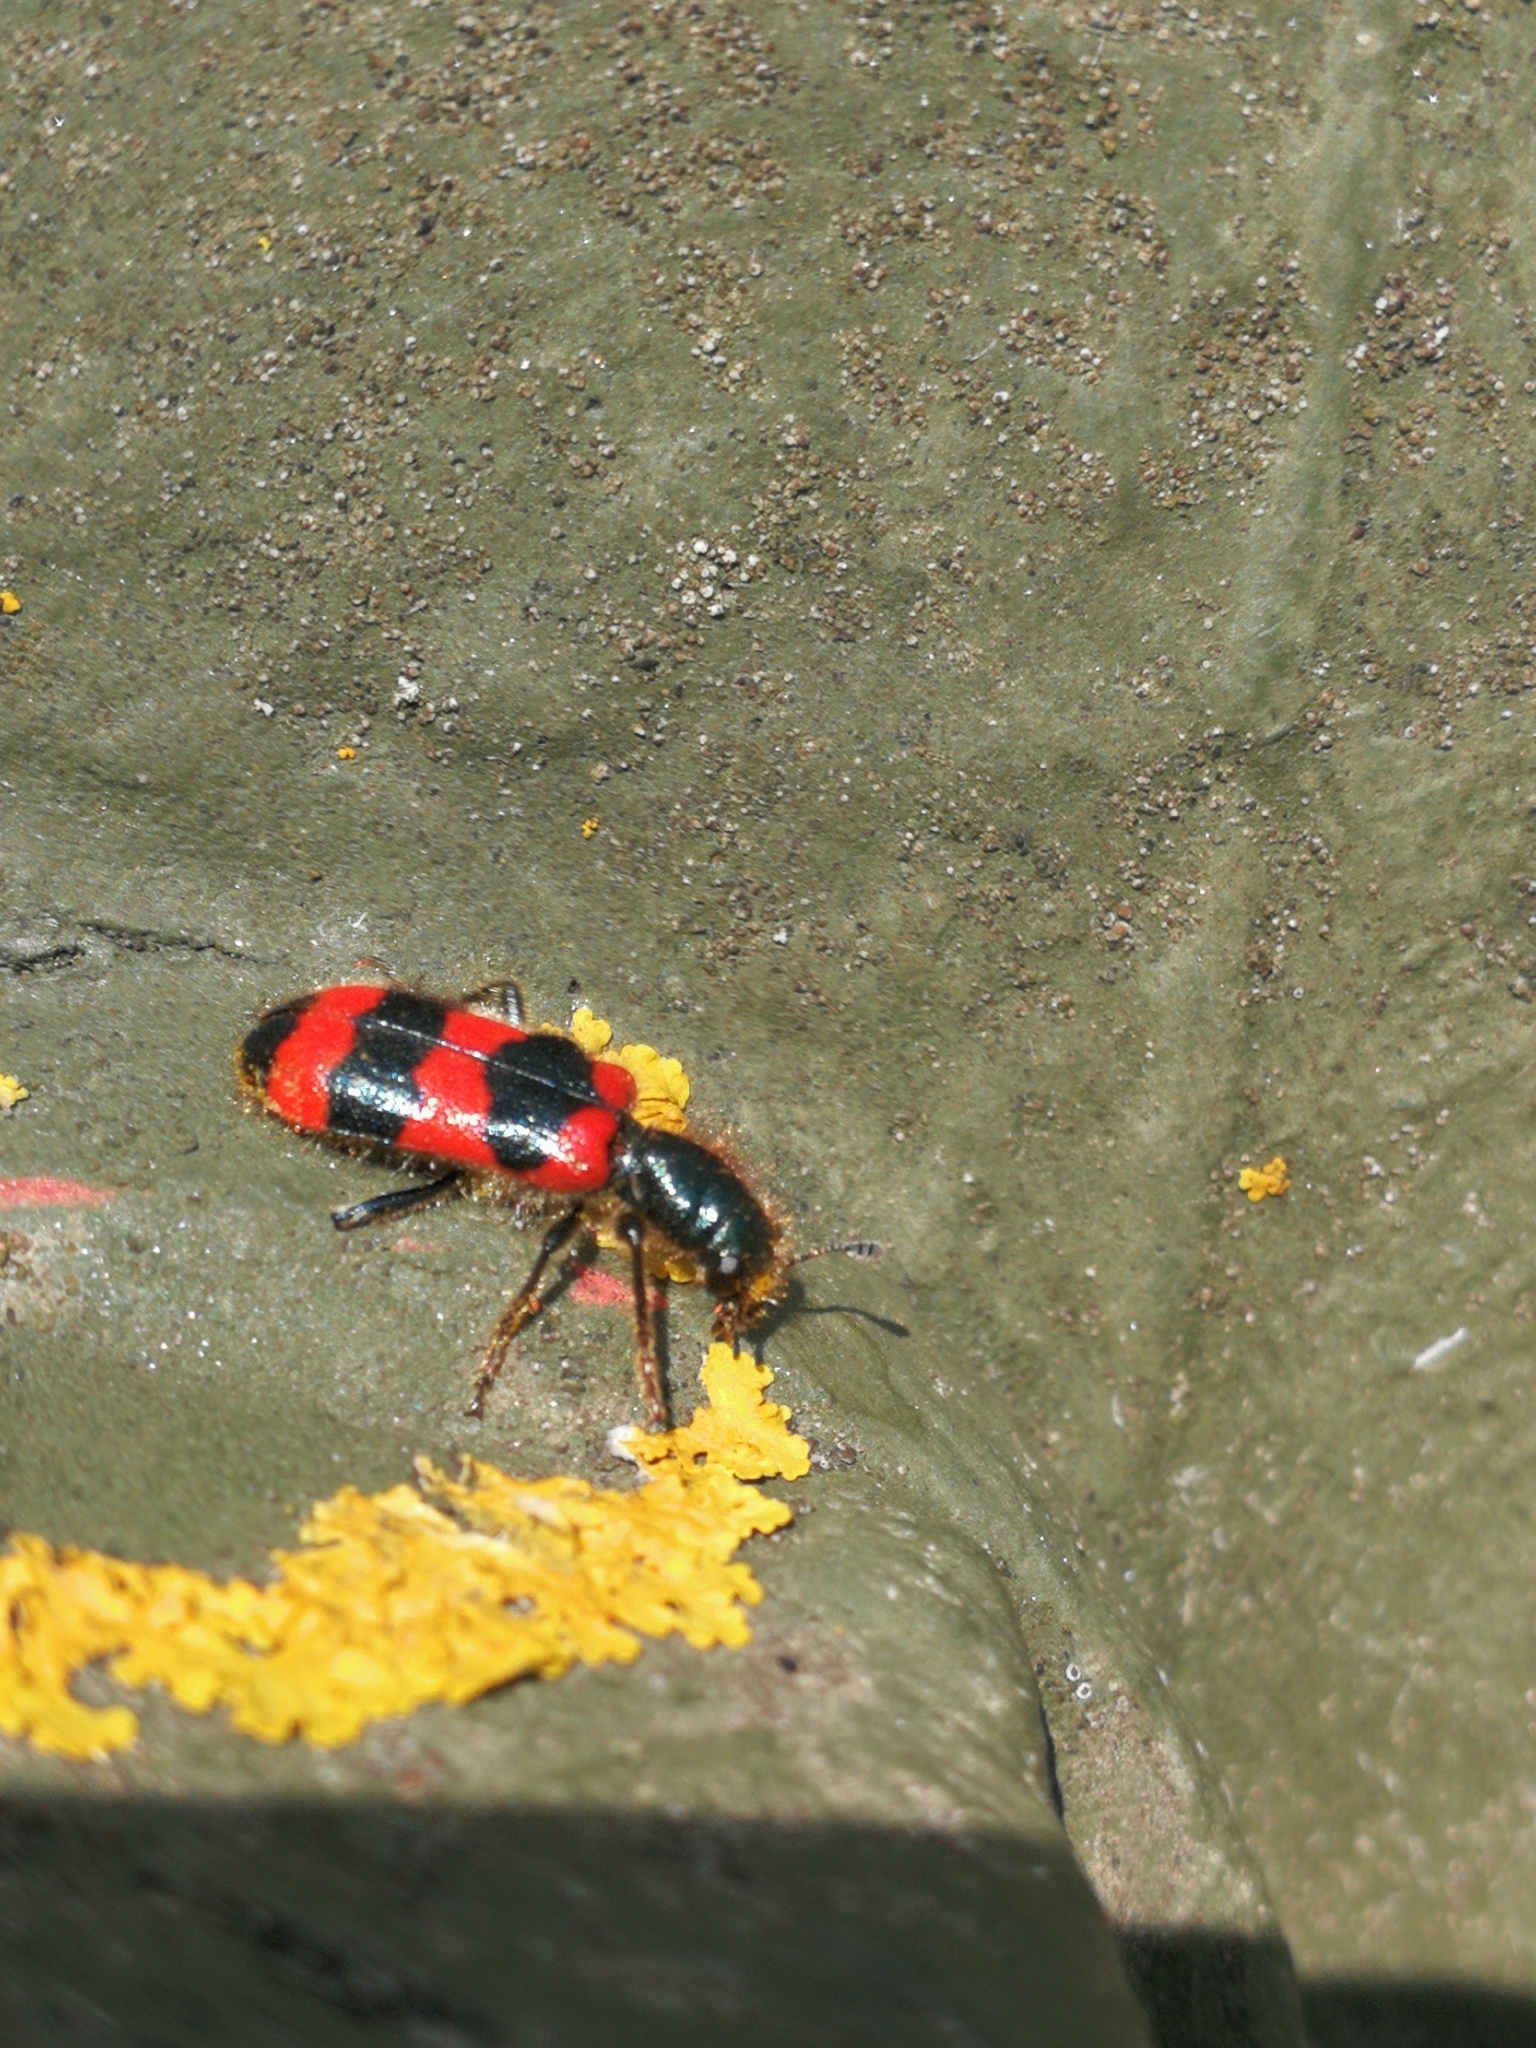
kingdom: Animalia
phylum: Arthropoda
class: Insecta
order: Coleoptera
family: Cleridae
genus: Trichodes
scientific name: Trichodes apiarius
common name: Bee-eating beetle
